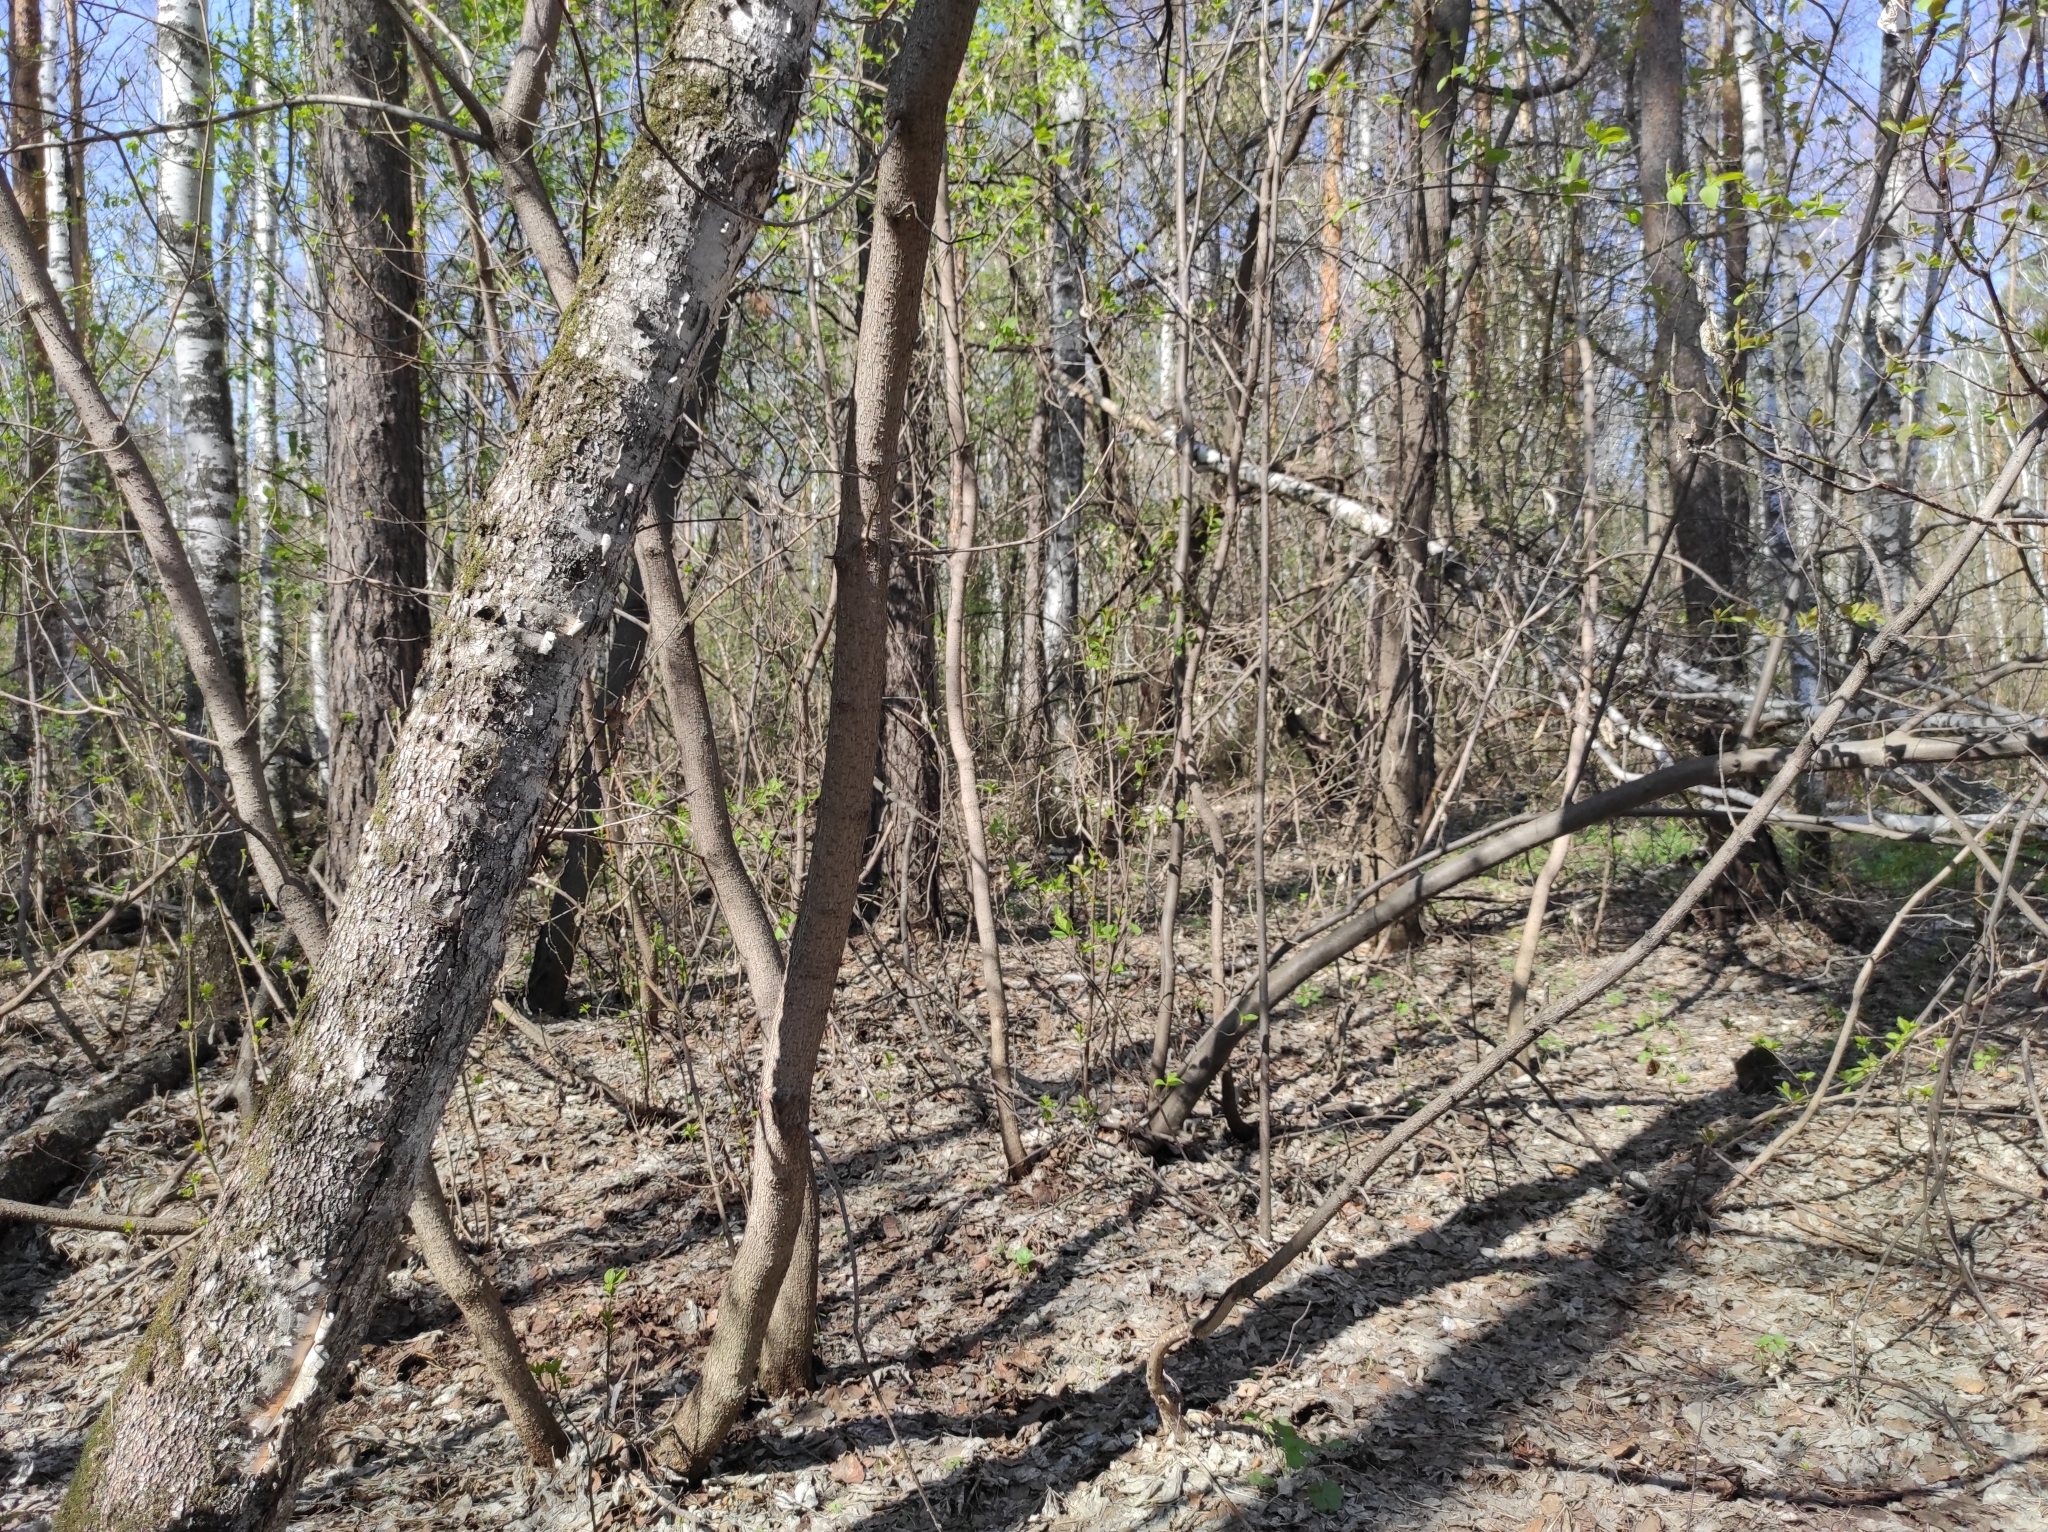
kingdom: Fungi
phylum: Ascomycota
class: Pezizomycetes
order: Pezizales
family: Morchellaceae
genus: Verpa
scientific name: Verpa bohemica
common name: Wrinkled thimble morel
